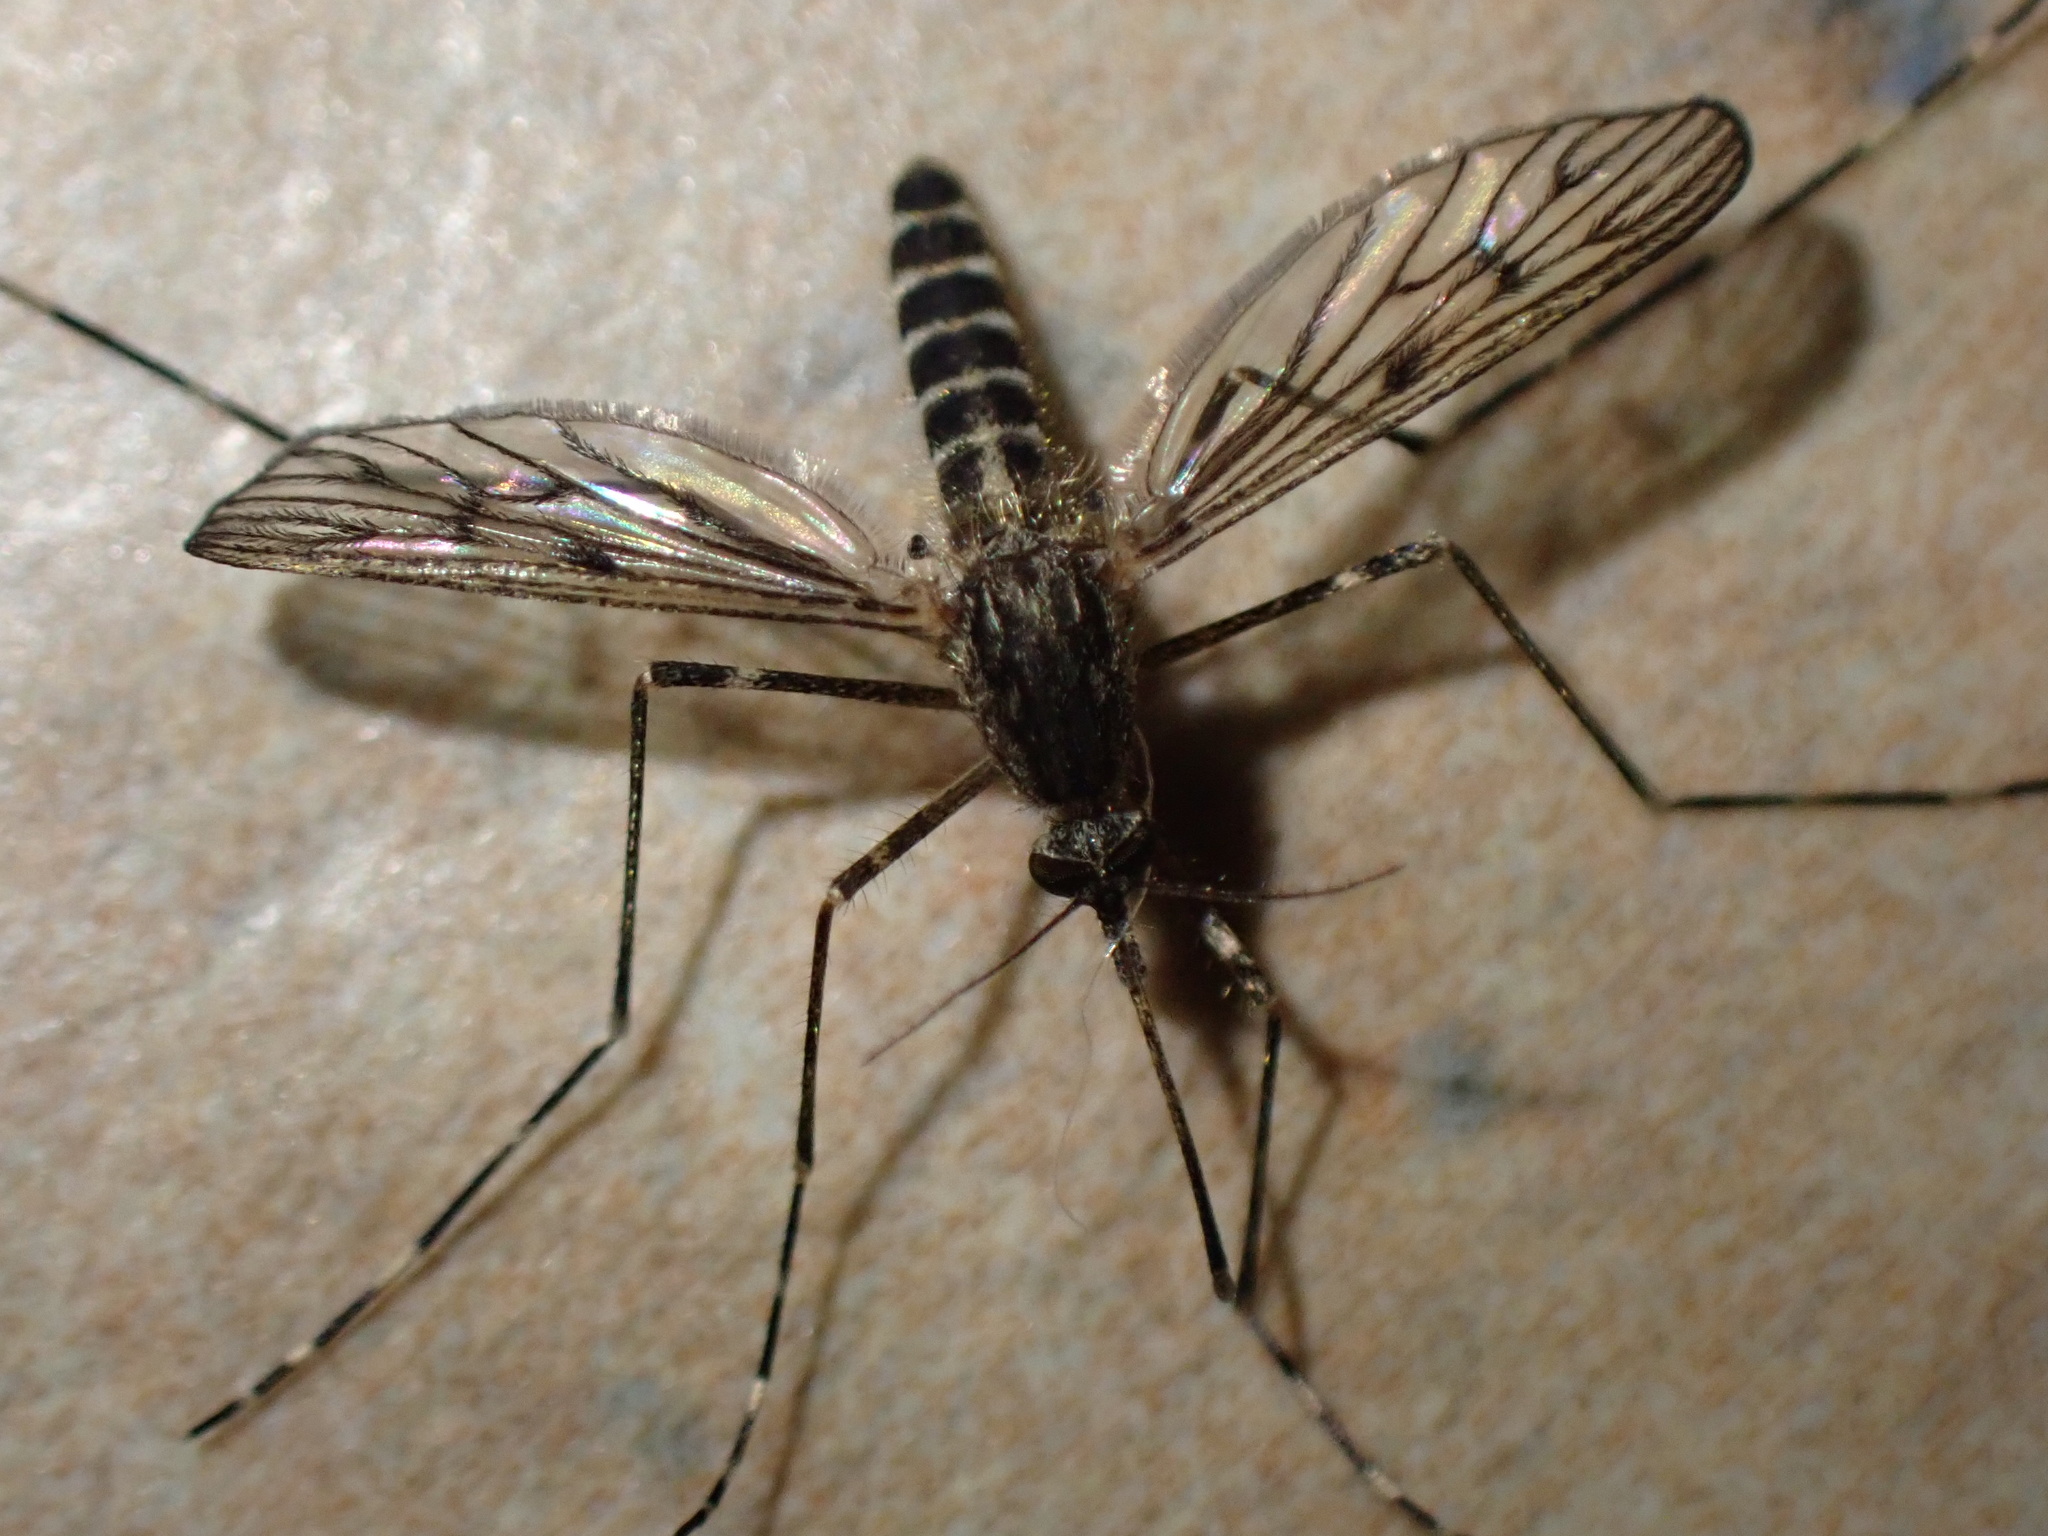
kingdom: Animalia
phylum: Arthropoda
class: Insecta
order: Diptera
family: Culicidae
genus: Culiseta
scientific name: Culiseta annulata
